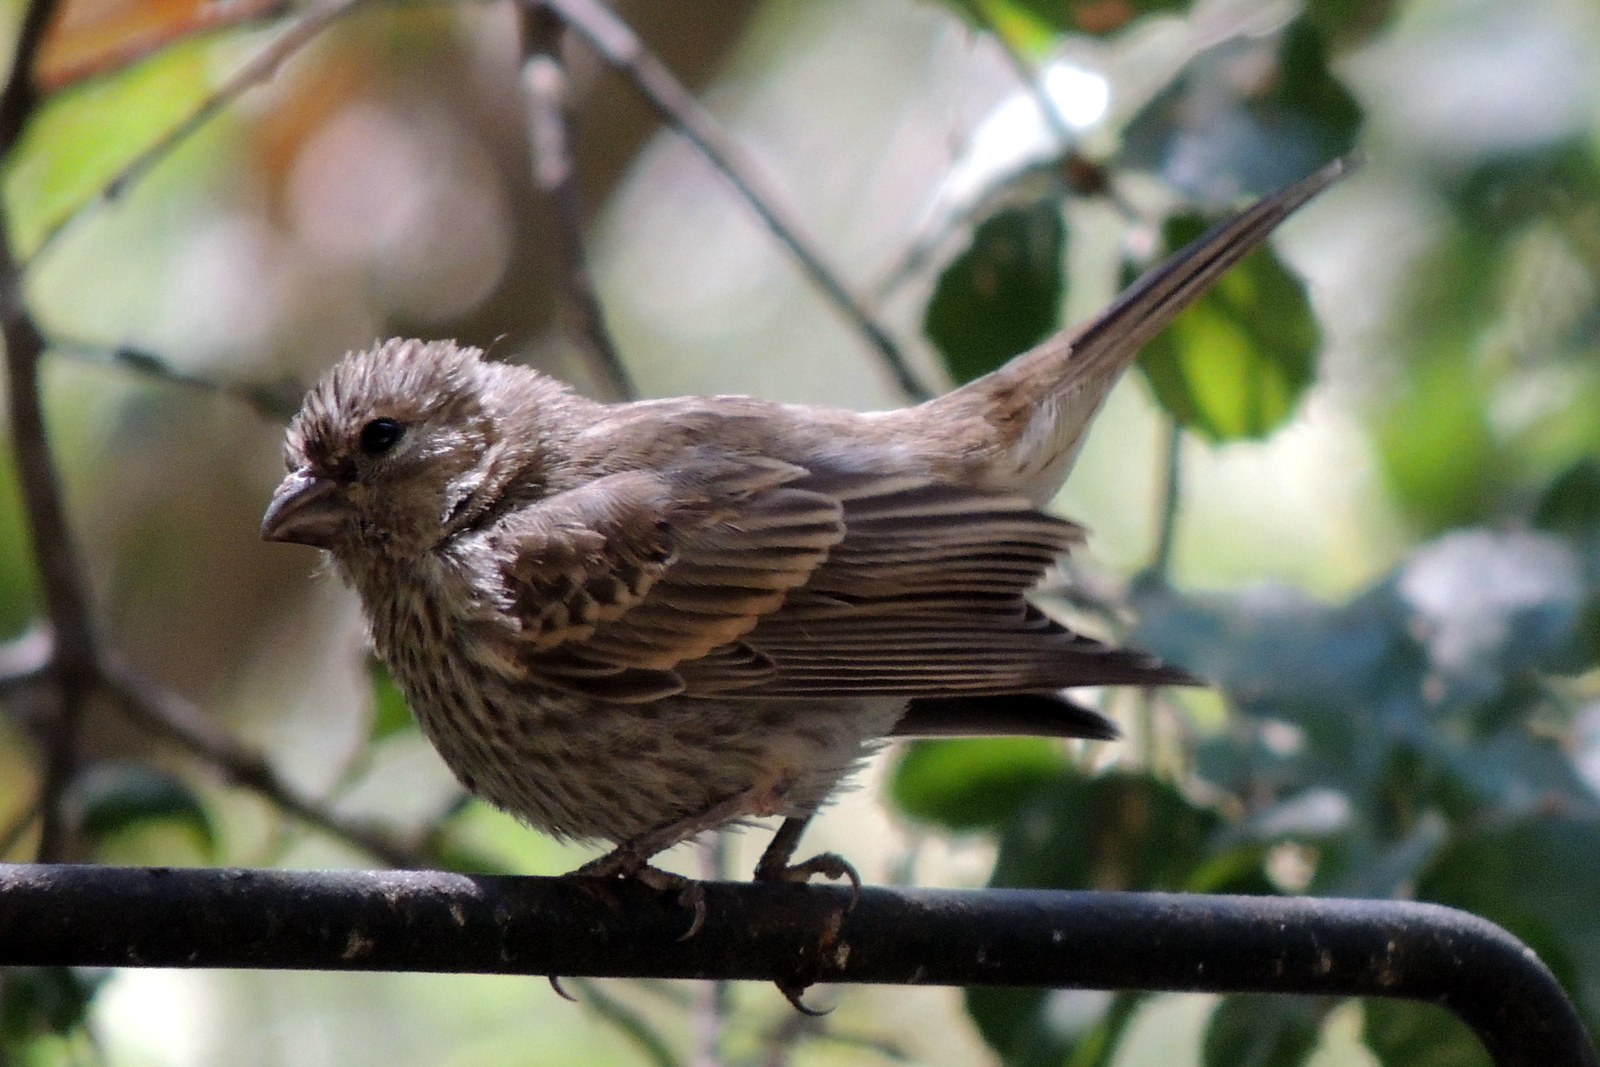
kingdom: Animalia
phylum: Chordata
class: Aves
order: Passeriformes
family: Fringillidae
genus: Haemorhous
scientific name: Haemorhous mexicanus
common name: House finch
